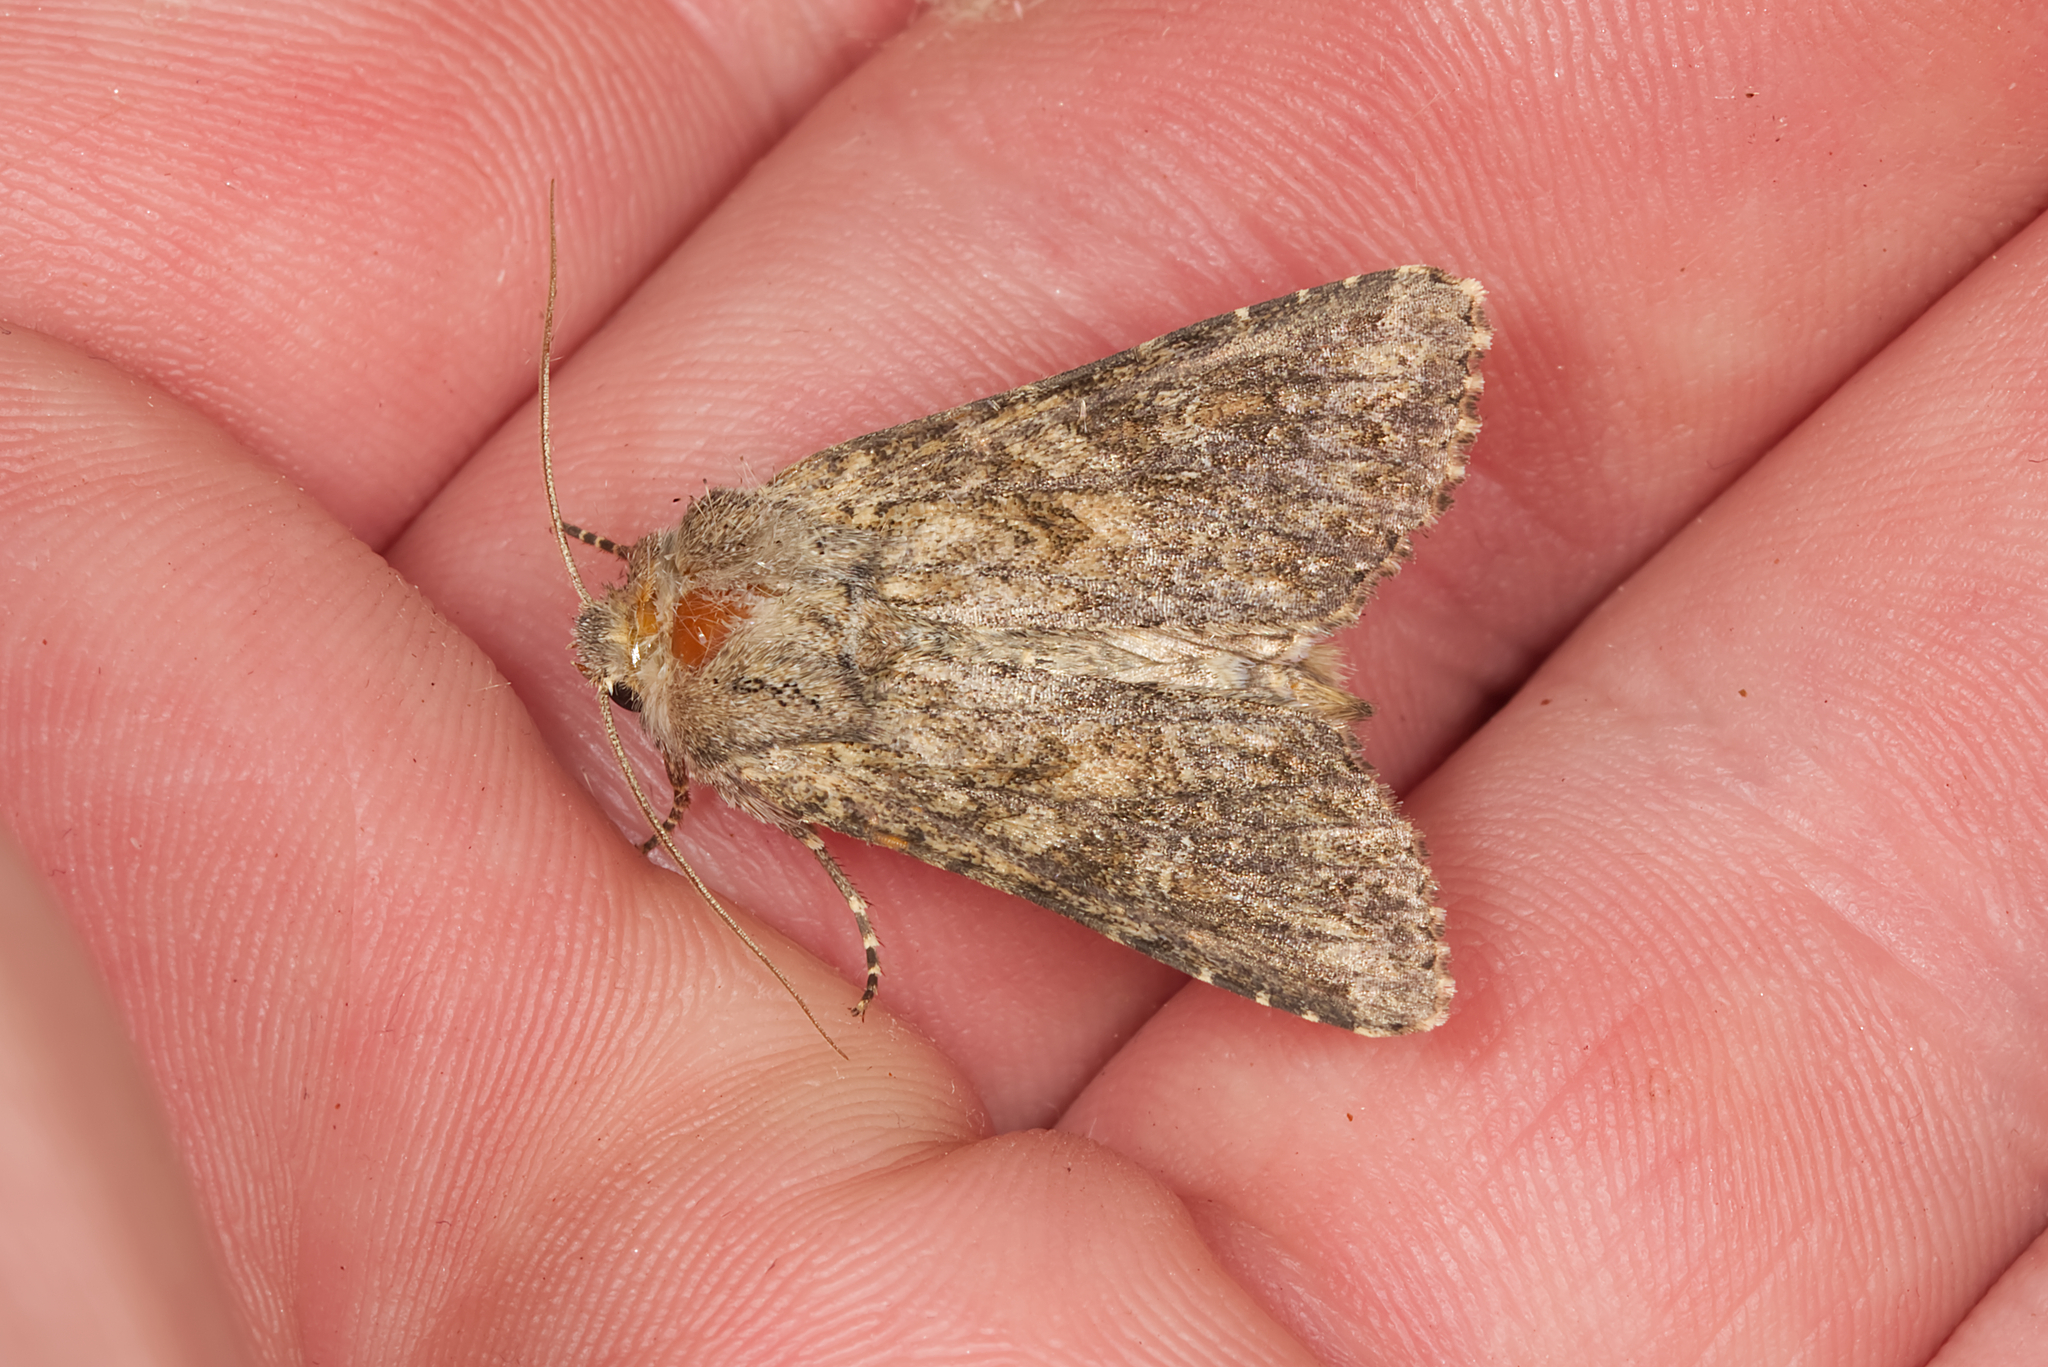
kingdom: Animalia
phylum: Arthropoda
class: Insecta
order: Lepidoptera
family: Noctuidae
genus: Apamea
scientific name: Apamea anceps
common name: Large nutmeg
